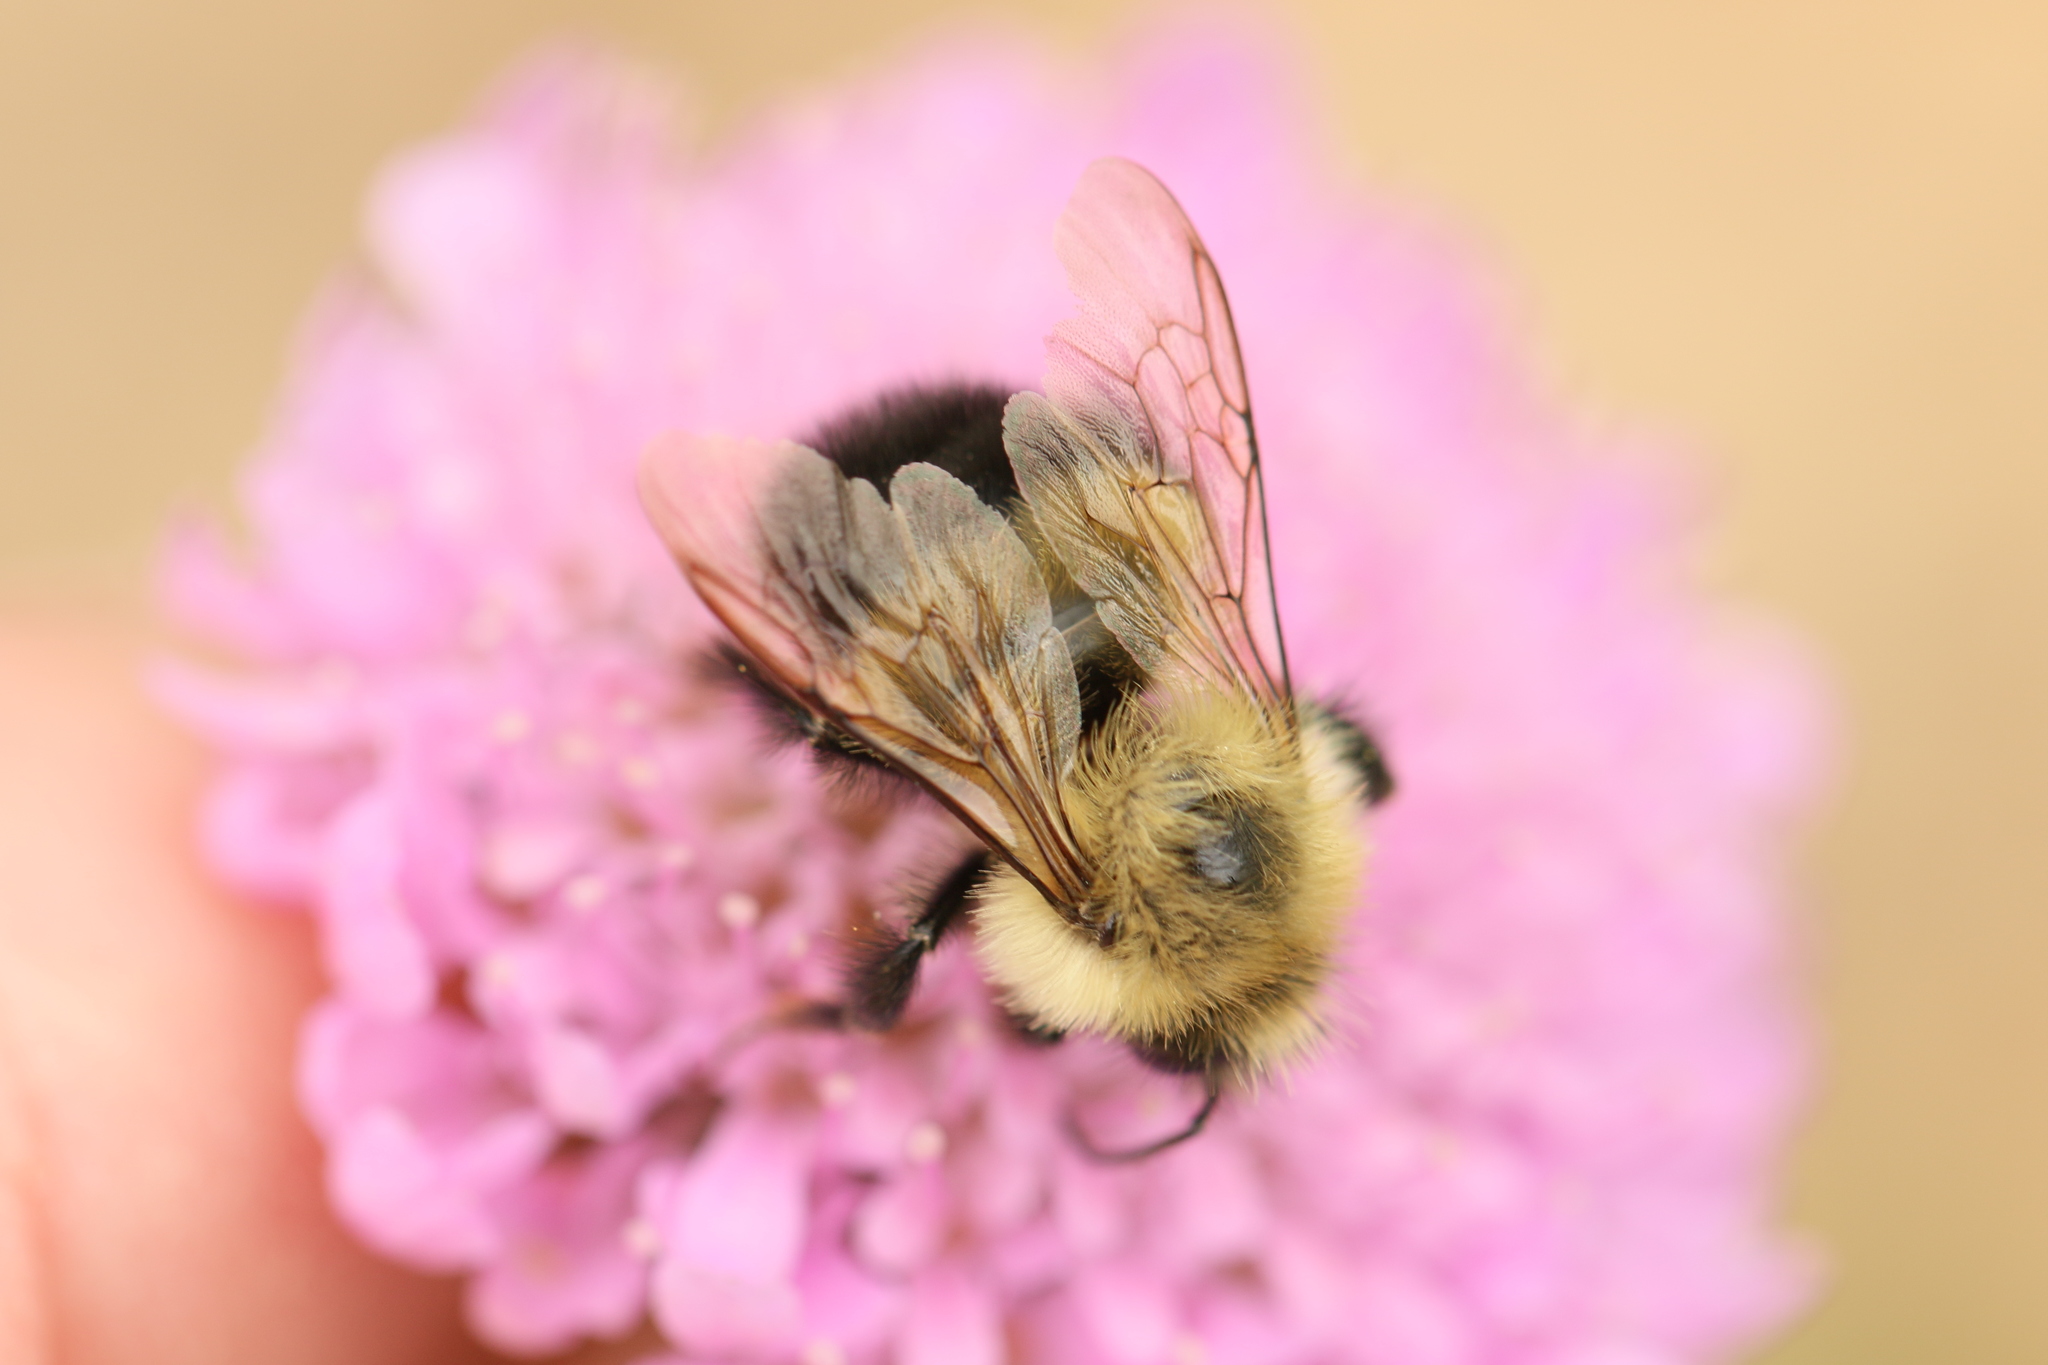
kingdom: Animalia
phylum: Arthropoda
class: Insecta
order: Hymenoptera
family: Apidae
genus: Bombus
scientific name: Bombus vagans
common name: Half-black bumble bee
